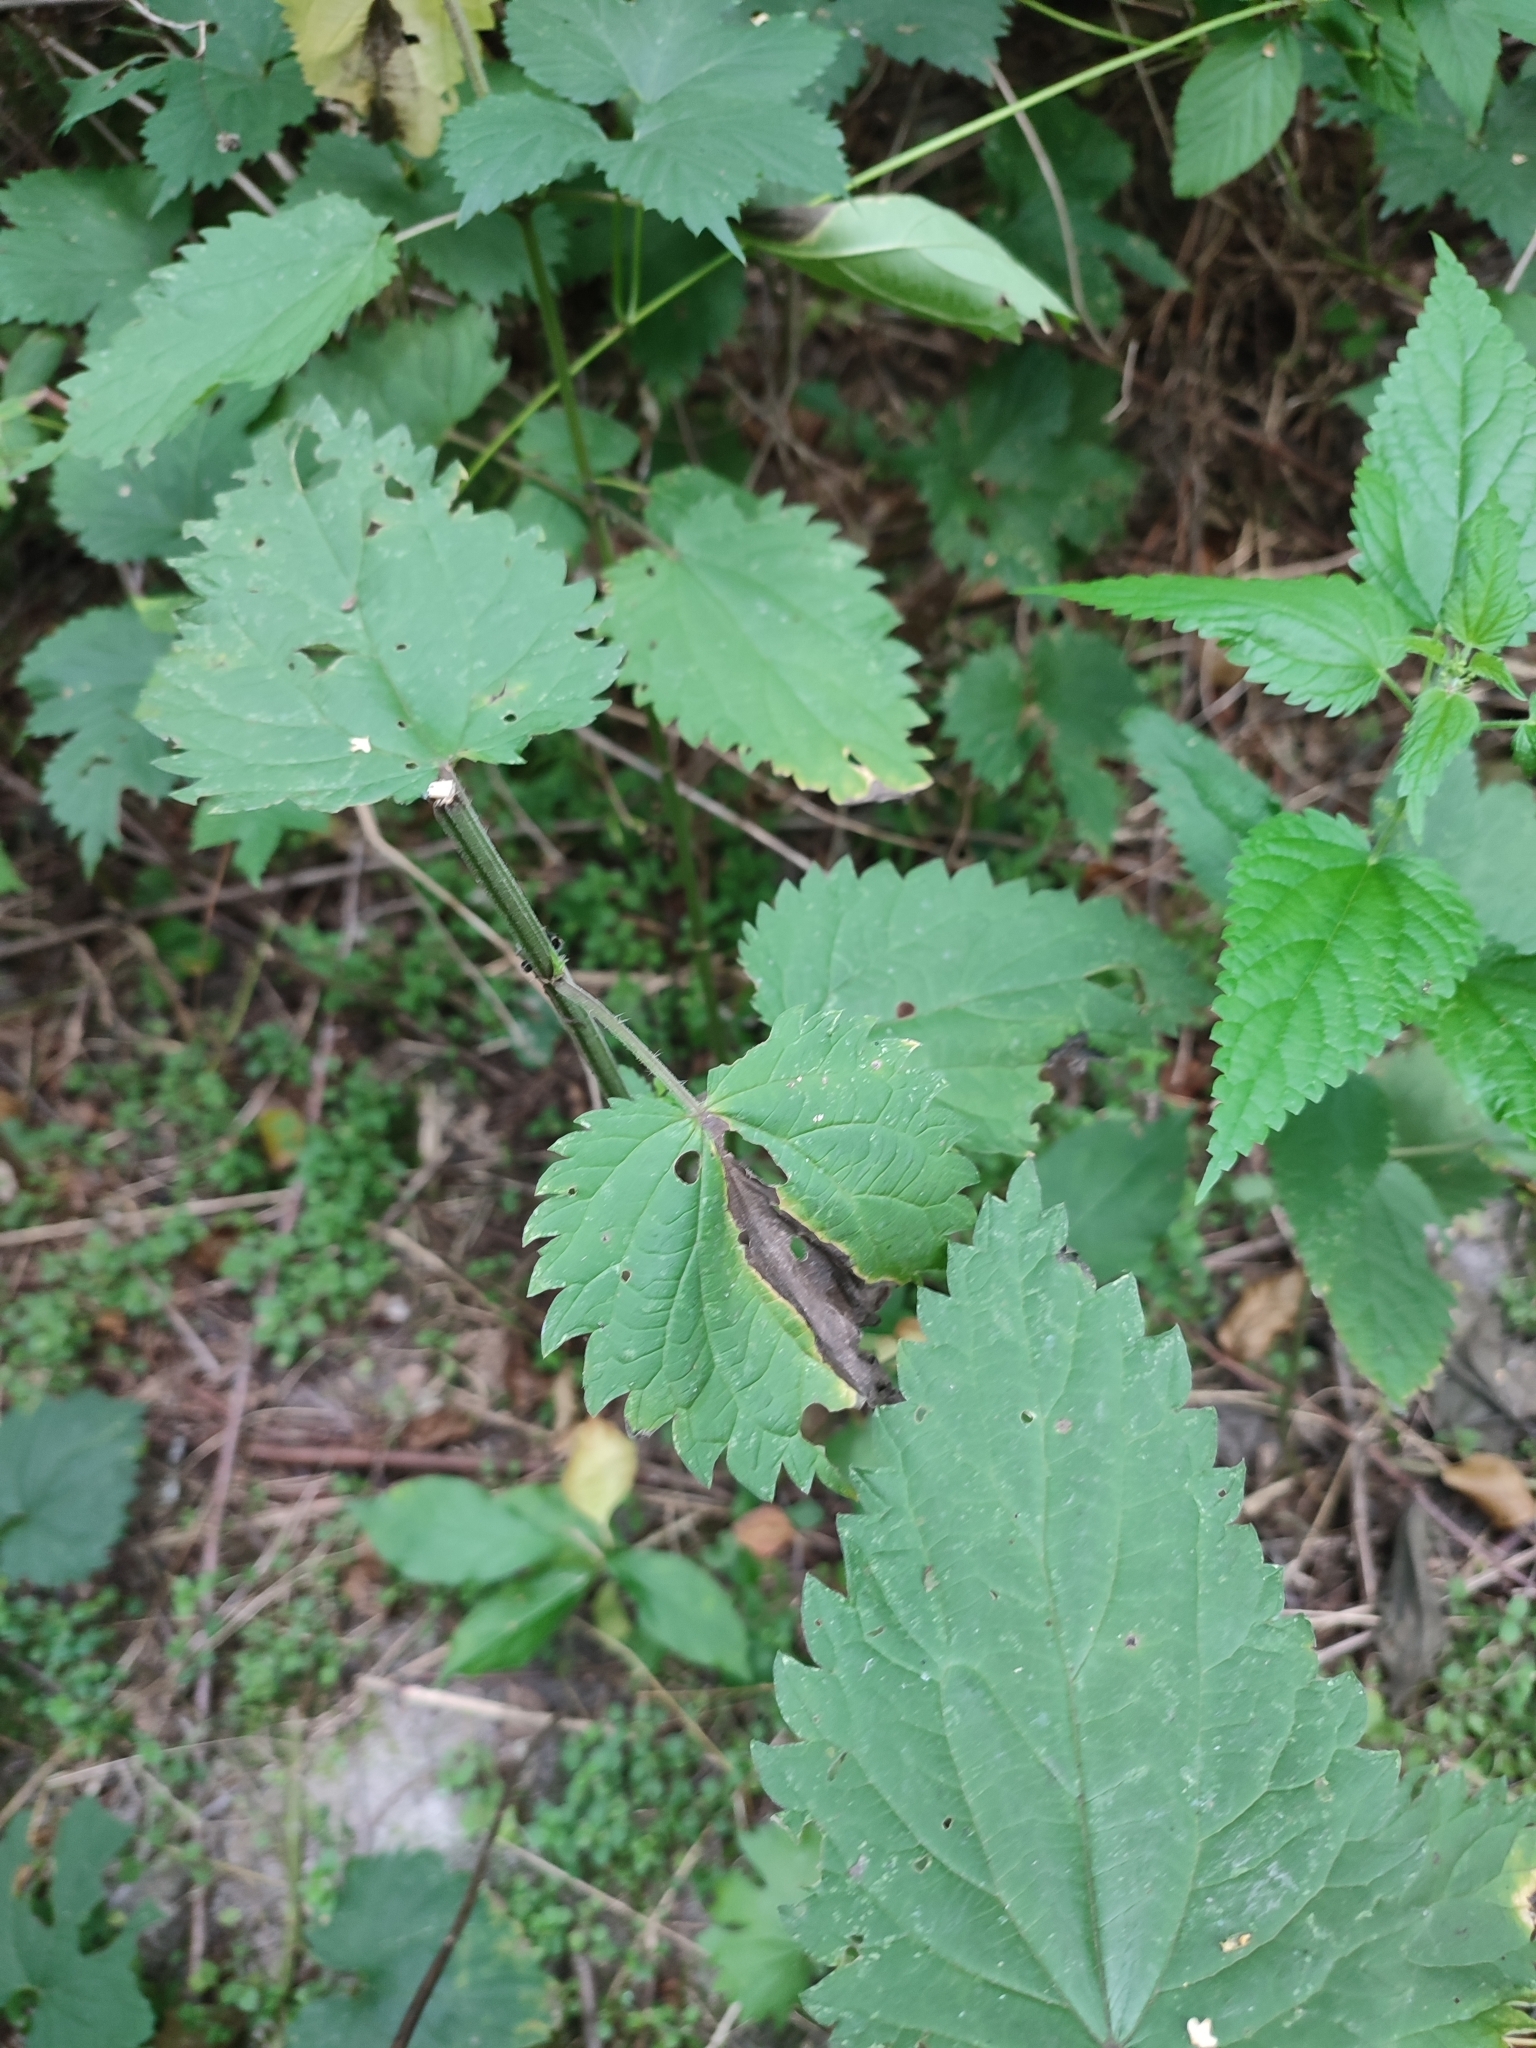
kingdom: Plantae
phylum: Tracheophyta
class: Magnoliopsida
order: Rosales
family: Urticaceae
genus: Urtica
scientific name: Urtica dioica
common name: Common nettle
